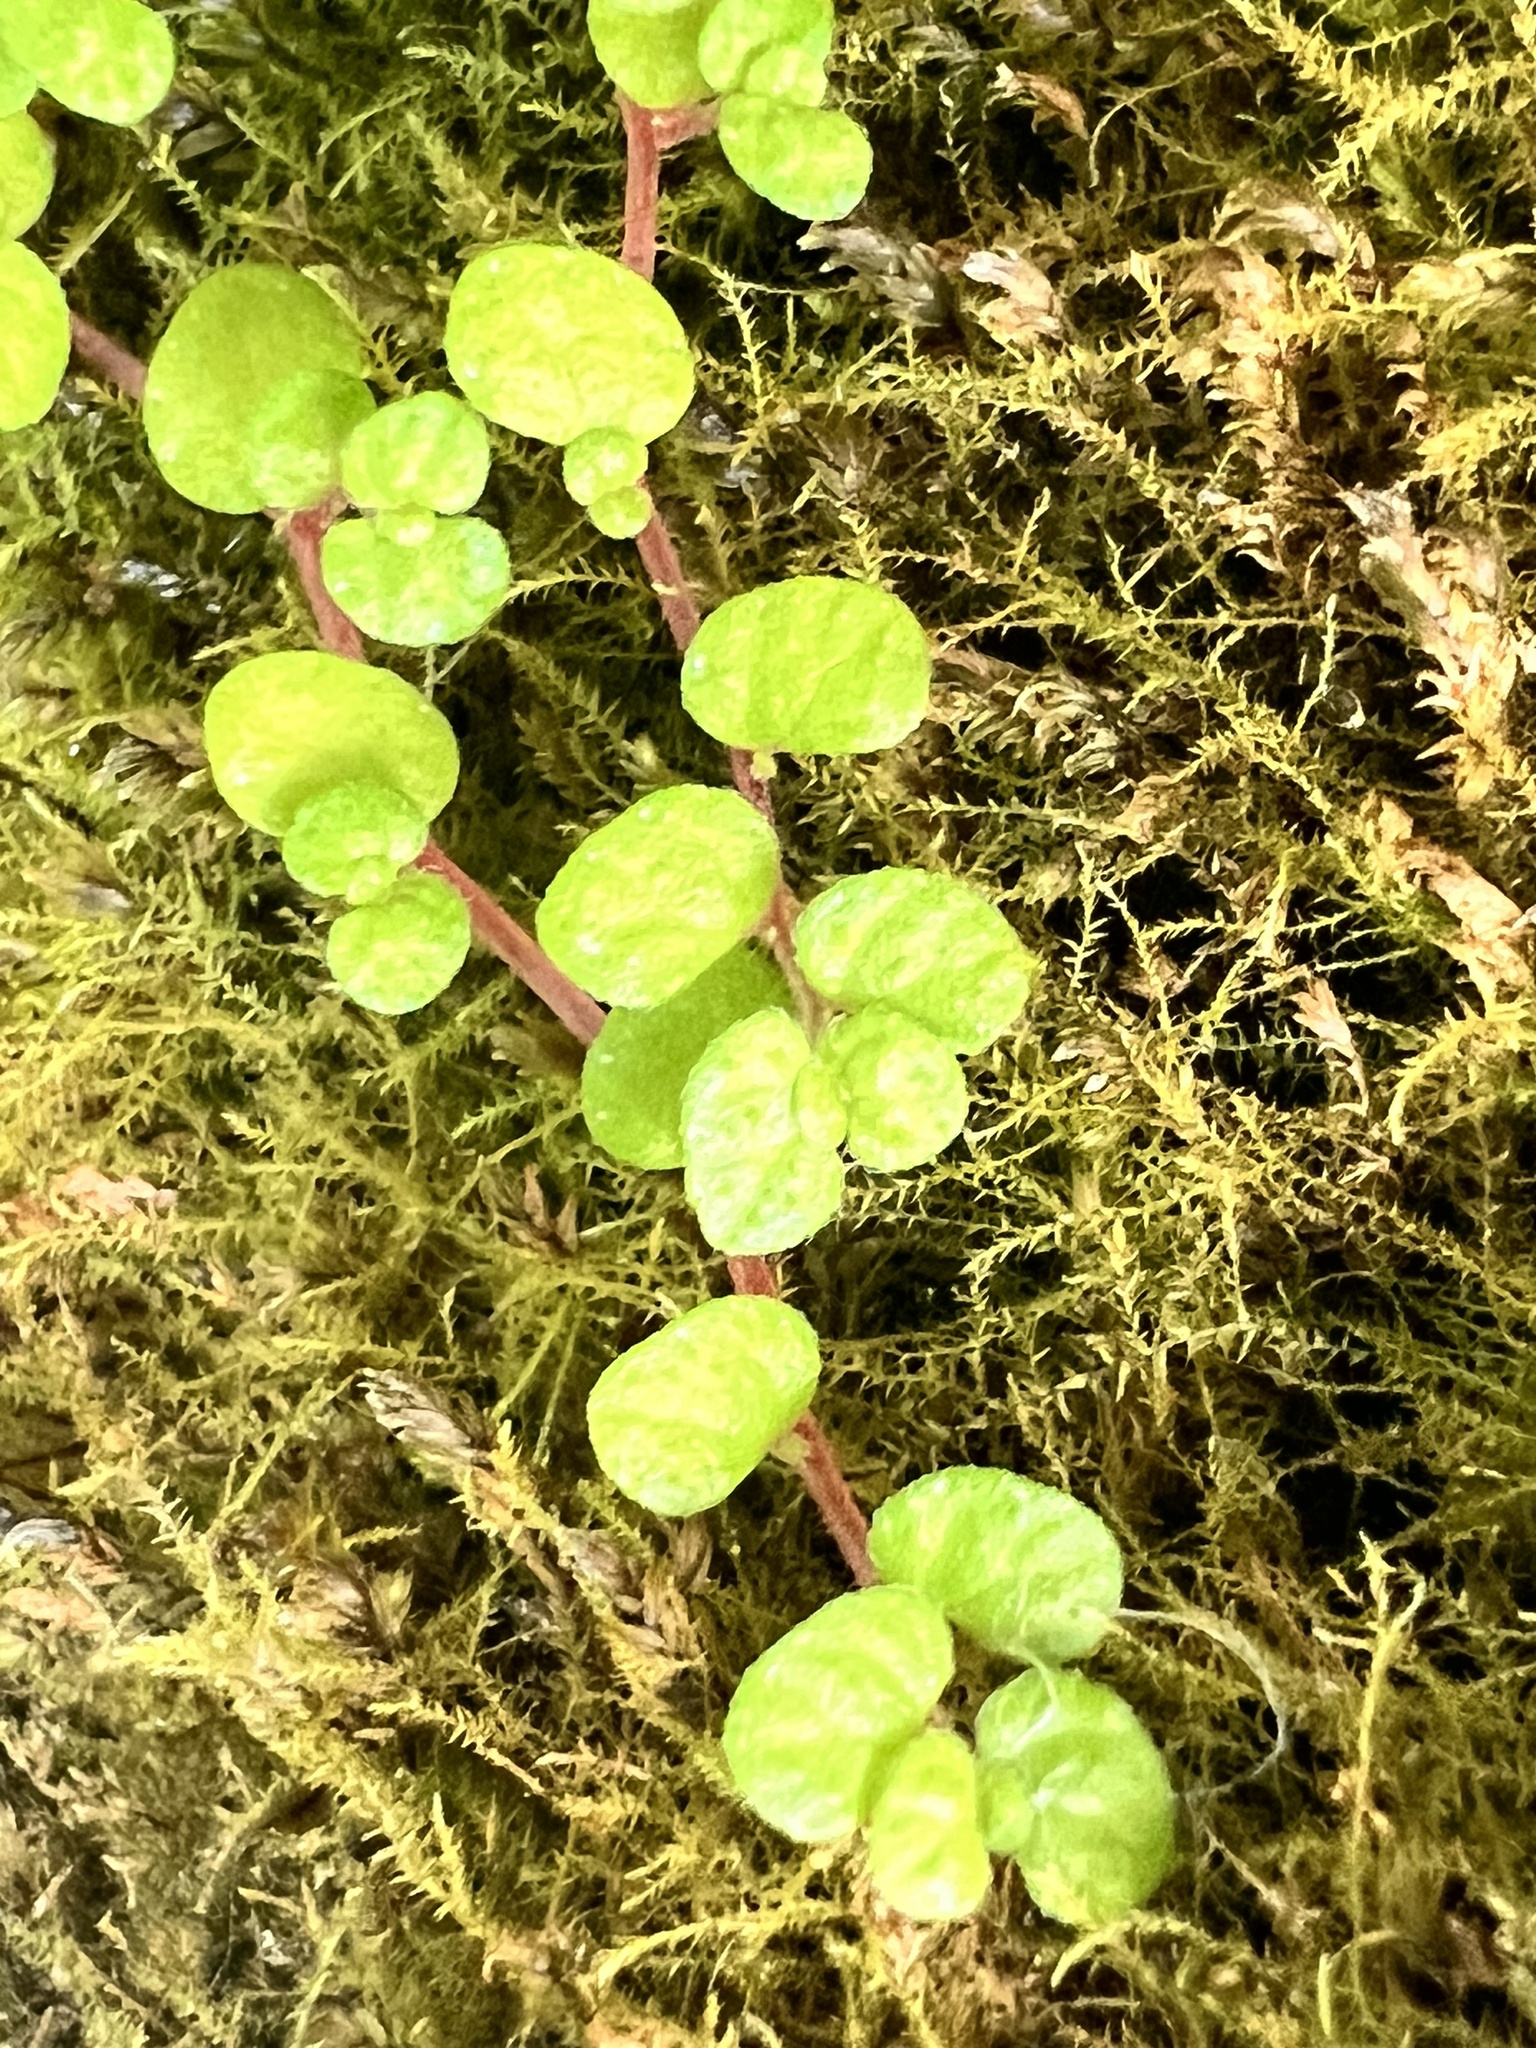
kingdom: Plantae
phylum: Tracheophyta
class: Magnoliopsida
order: Rosales
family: Urticaceae
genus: Soleirolia
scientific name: Soleirolia soleirolii
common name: Mind-your-own-business
